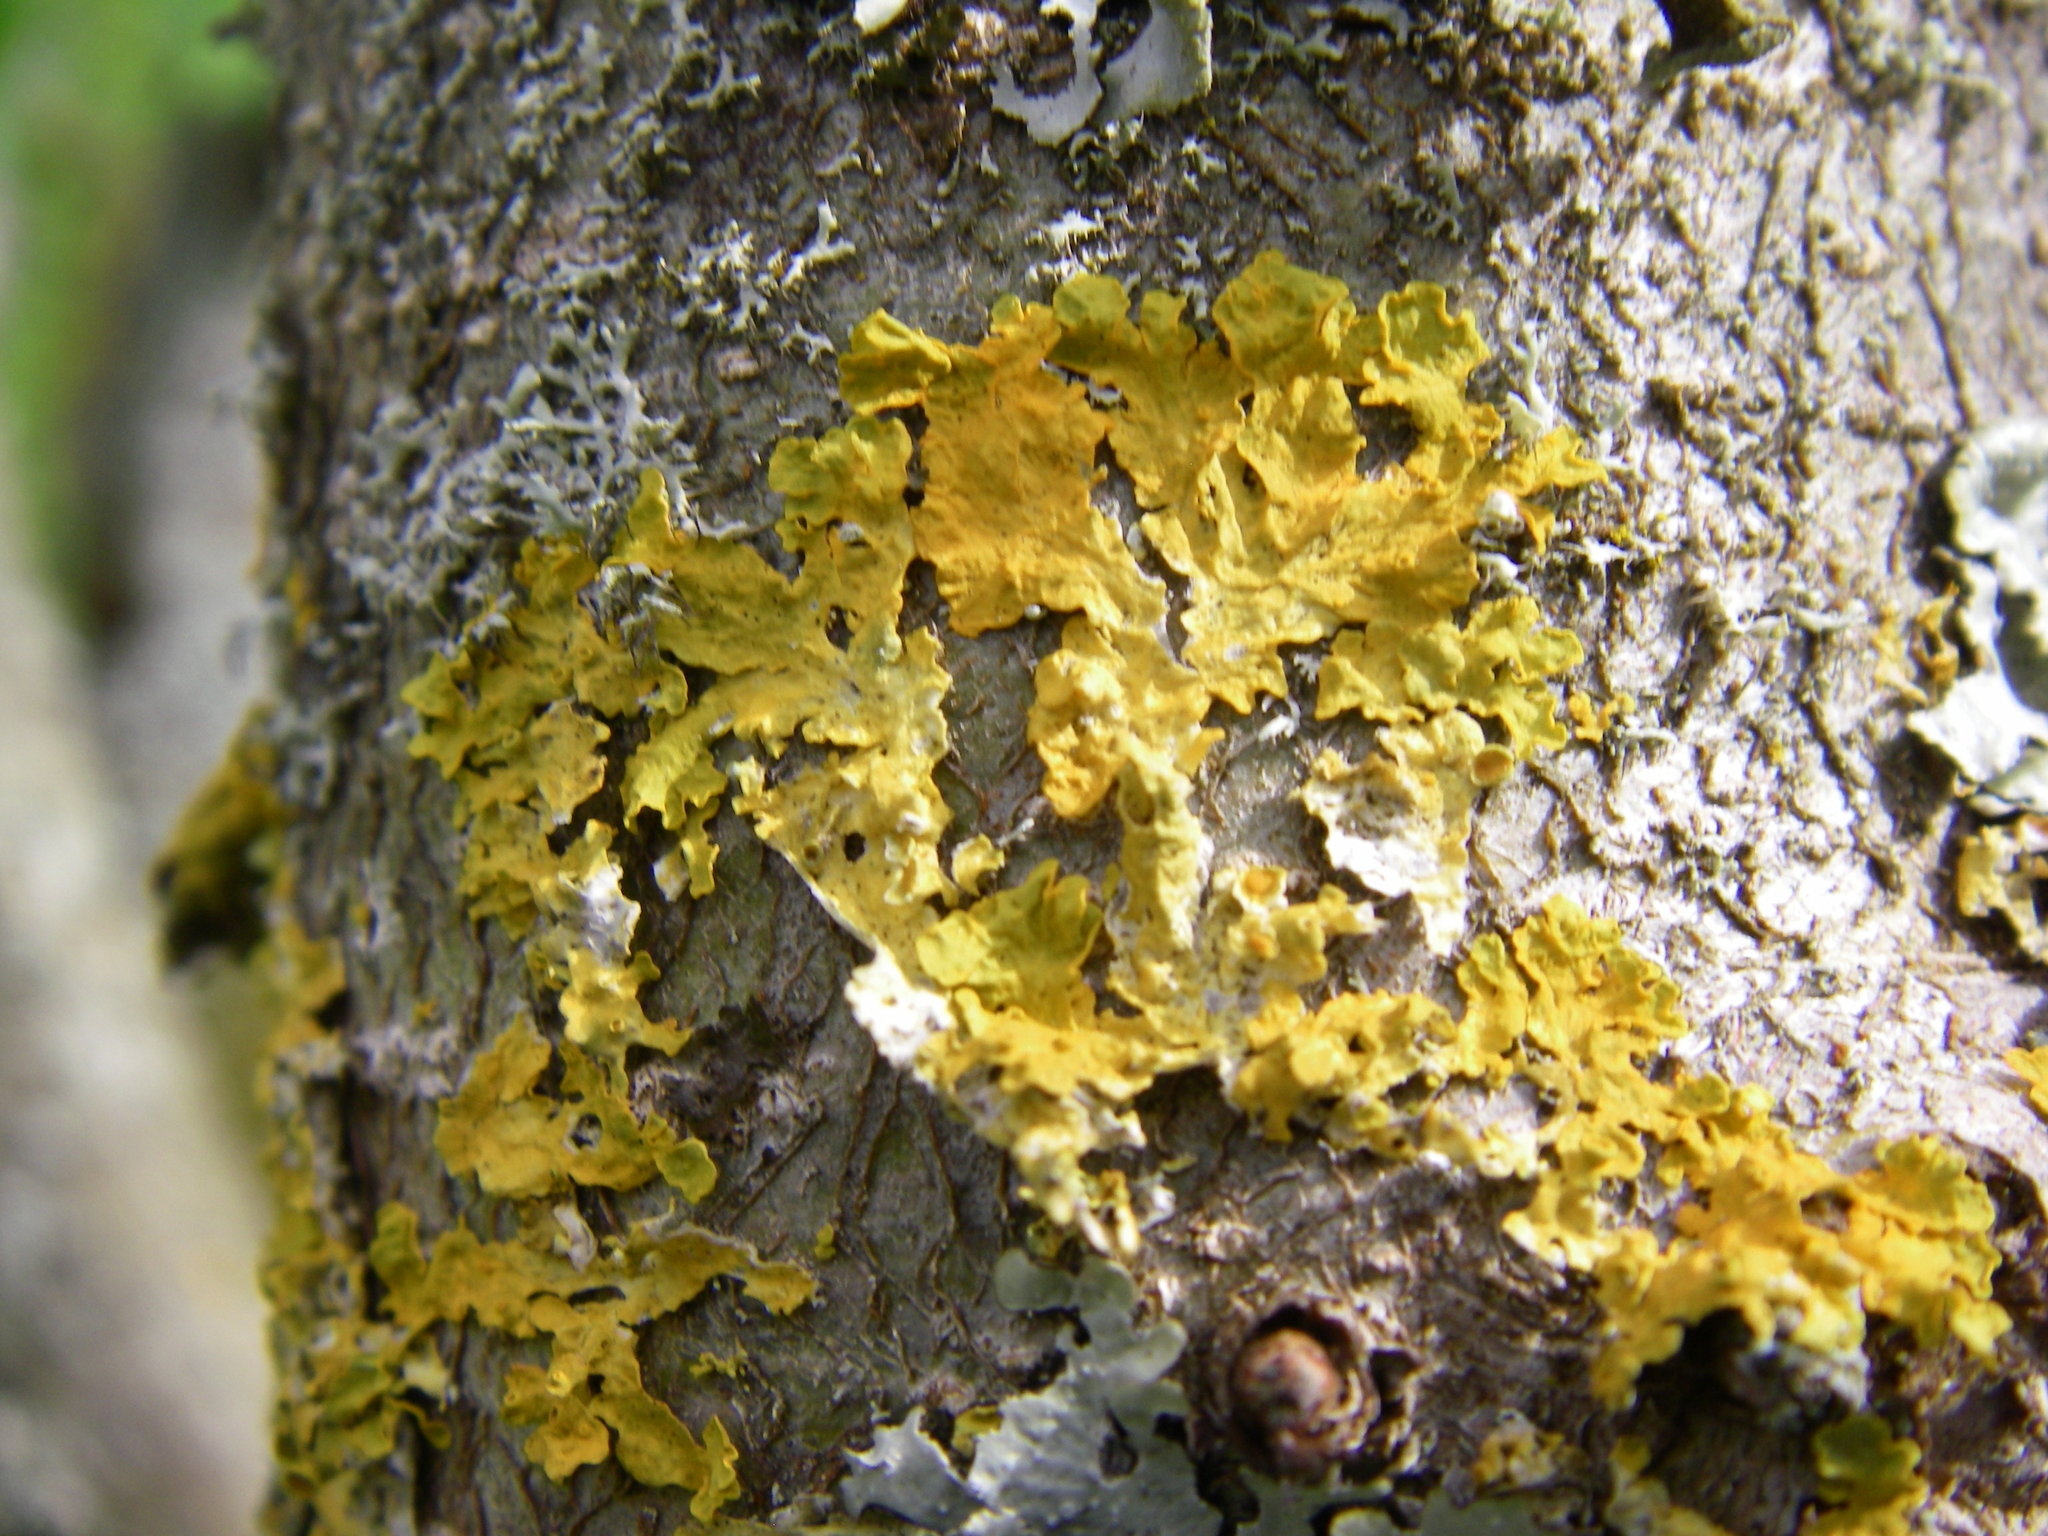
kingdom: Fungi
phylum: Ascomycota
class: Lecanoromycetes
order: Teloschistales
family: Teloschistaceae
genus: Xanthoria
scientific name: Xanthoria parietina
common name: Common orange lichen
